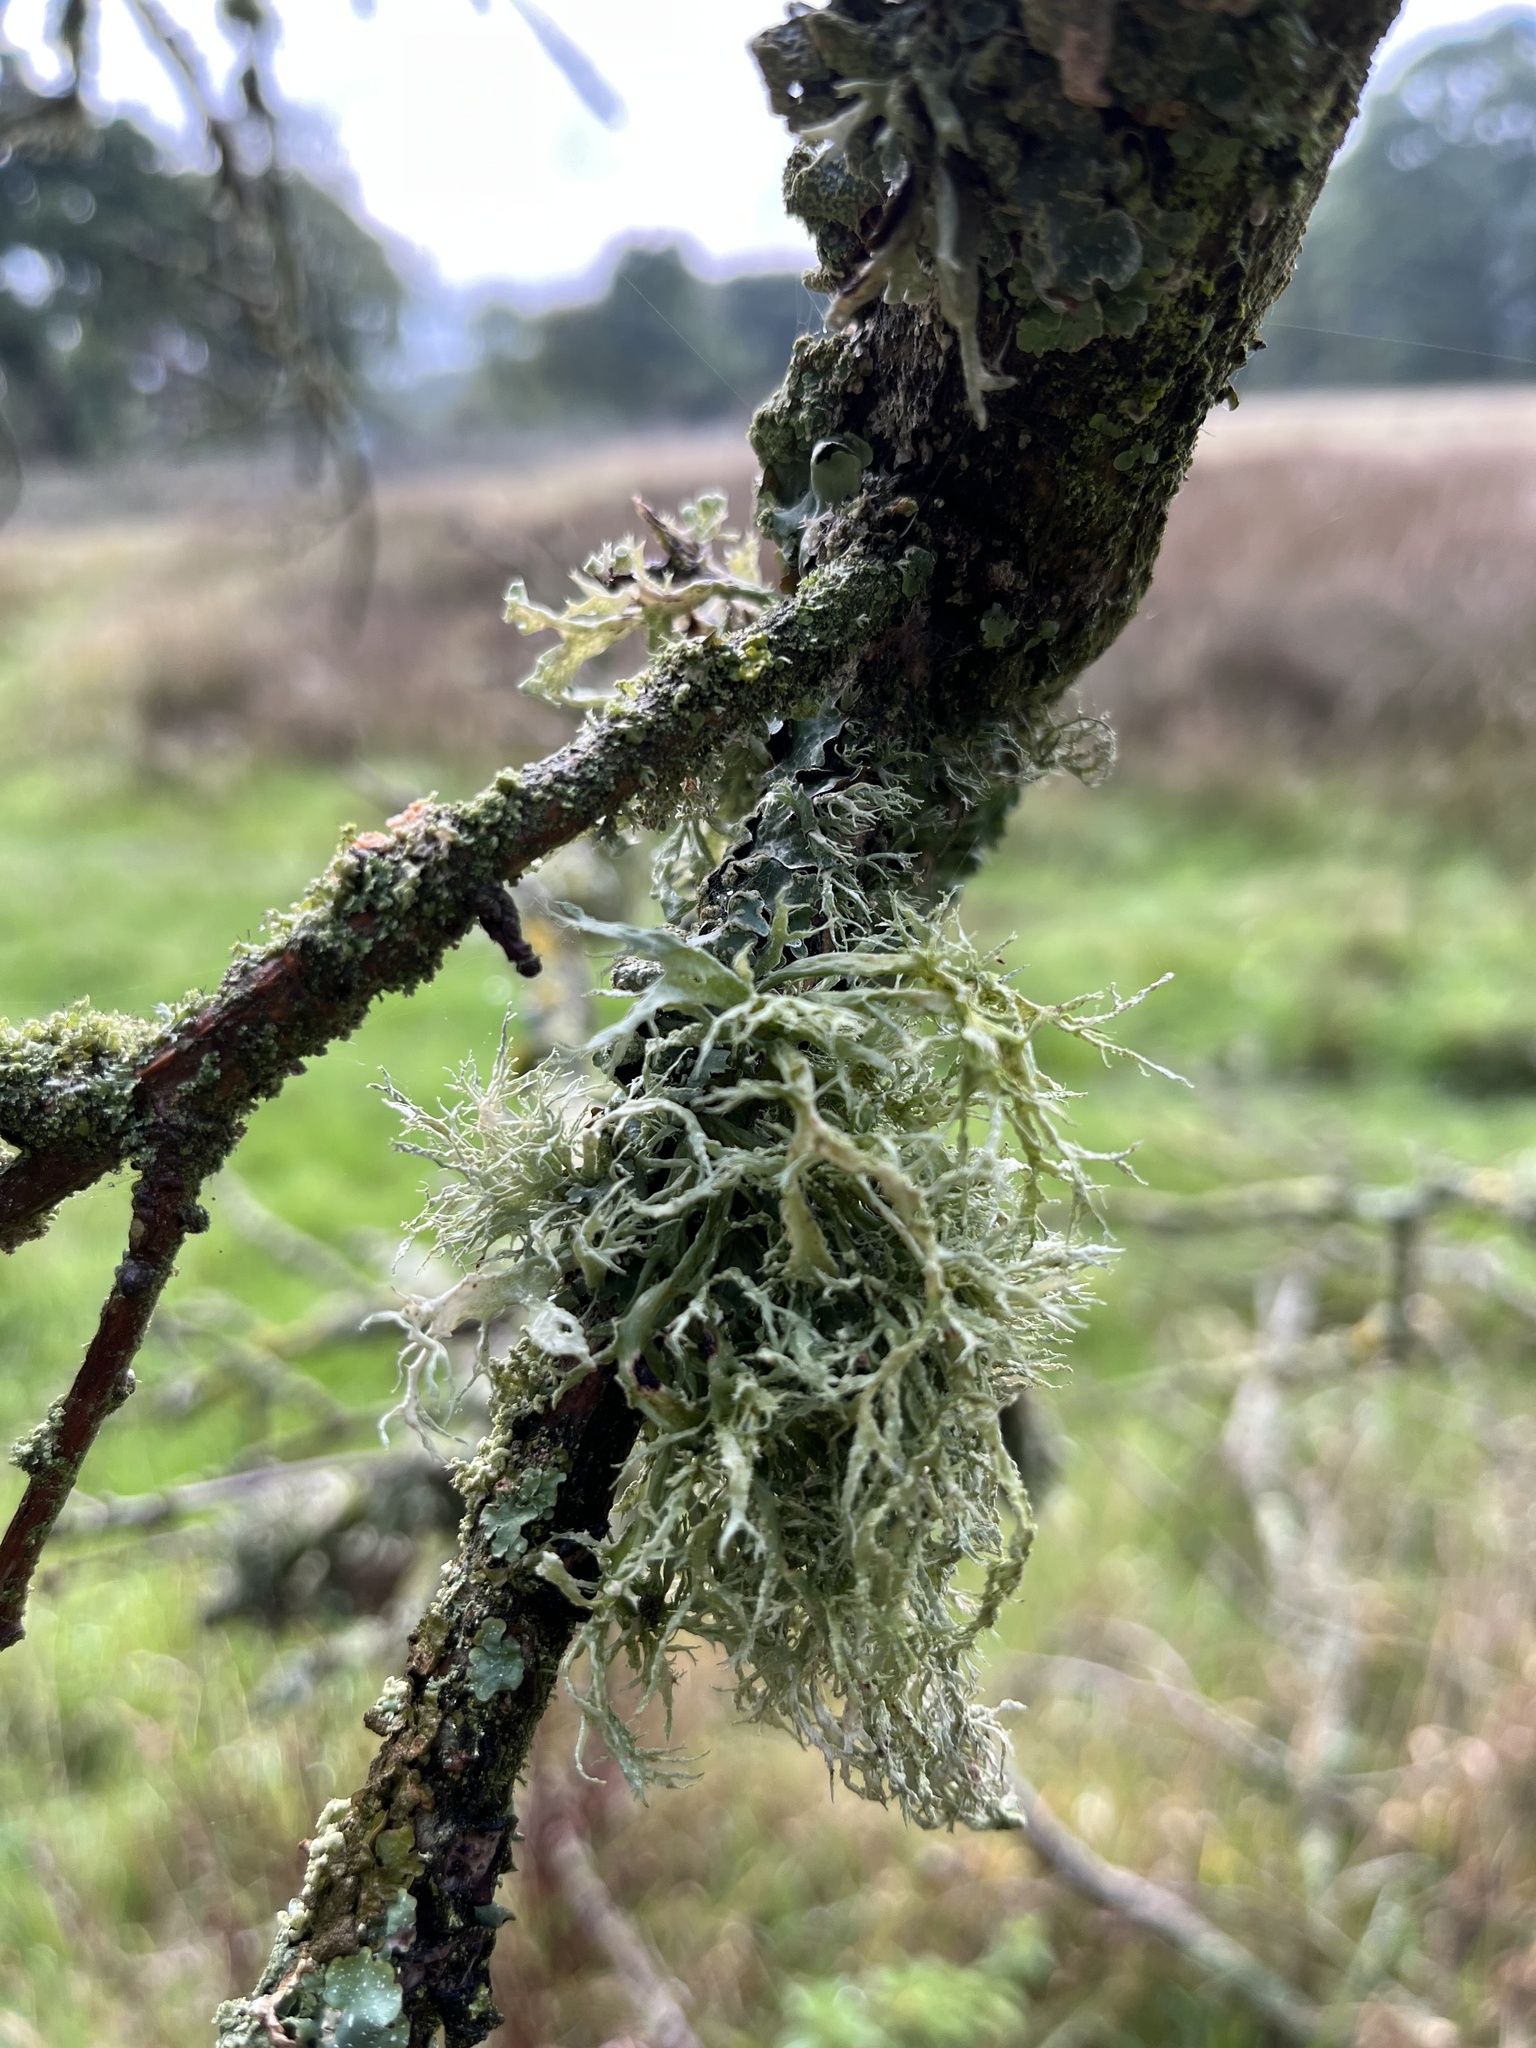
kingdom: Fungi
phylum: Ascomycota
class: Lecanoromycetes
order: Lecanorales
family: Ramalinaceae
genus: Ramalina
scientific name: Ramalina farinacea
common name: Farinose cartilage lichen
